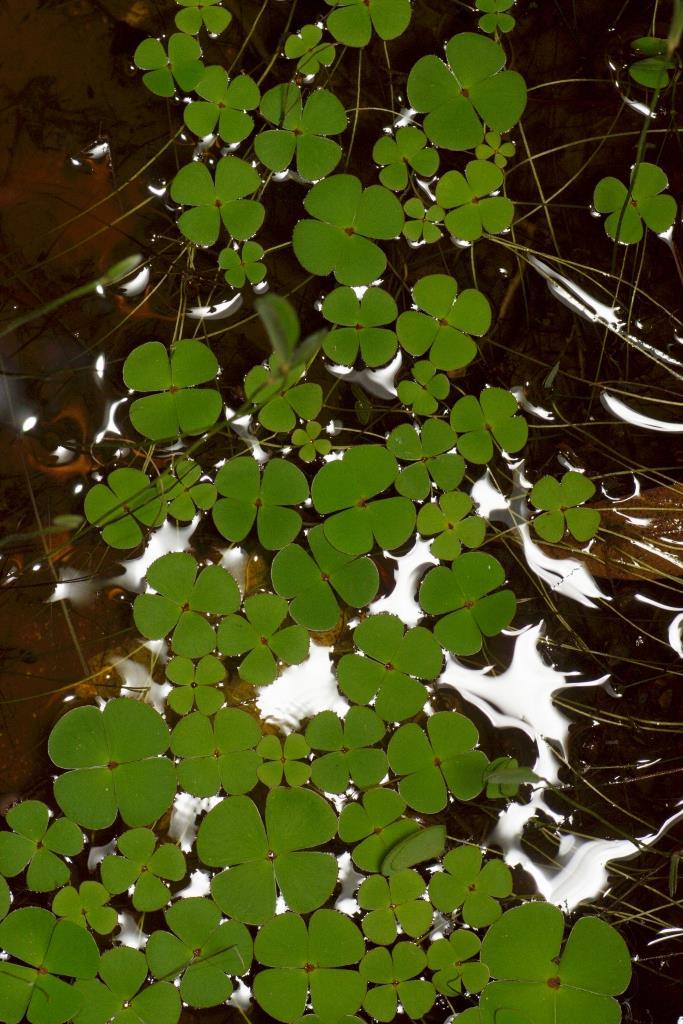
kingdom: Plantae
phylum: Tracheophyta
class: Polypodiopsida
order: Salviniales
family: Marsileaceae
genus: Marsilea
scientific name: Marsilea drummondii
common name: Nardoo
